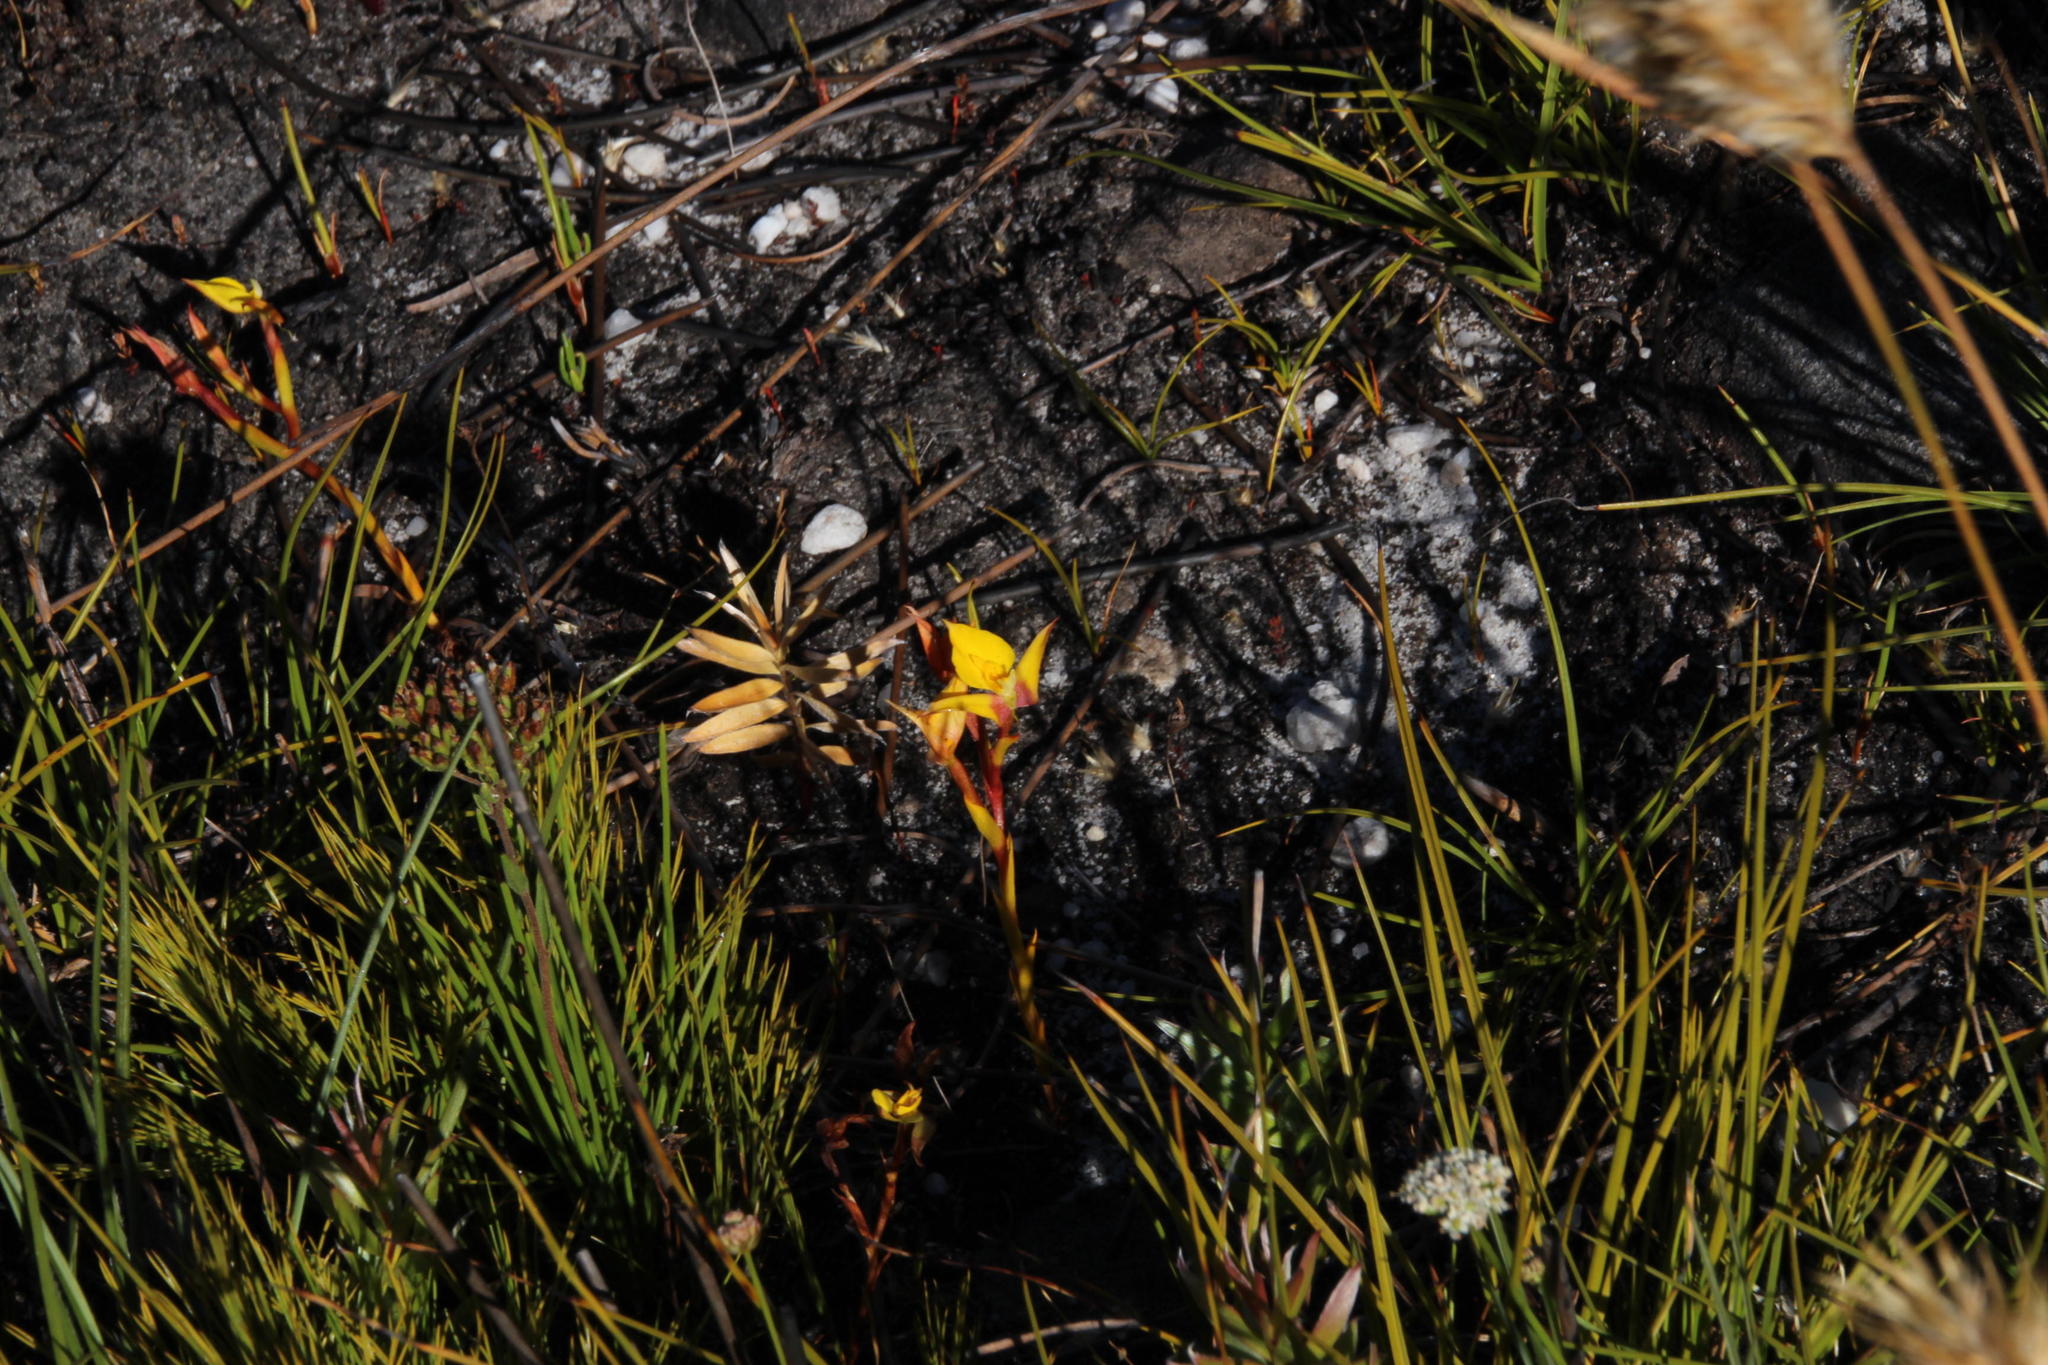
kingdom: Plantae
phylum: Tracheophyta
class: Liliopsida
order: Asparagales
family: Orchidaceae
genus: Disa
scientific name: Disa tenuifolia
